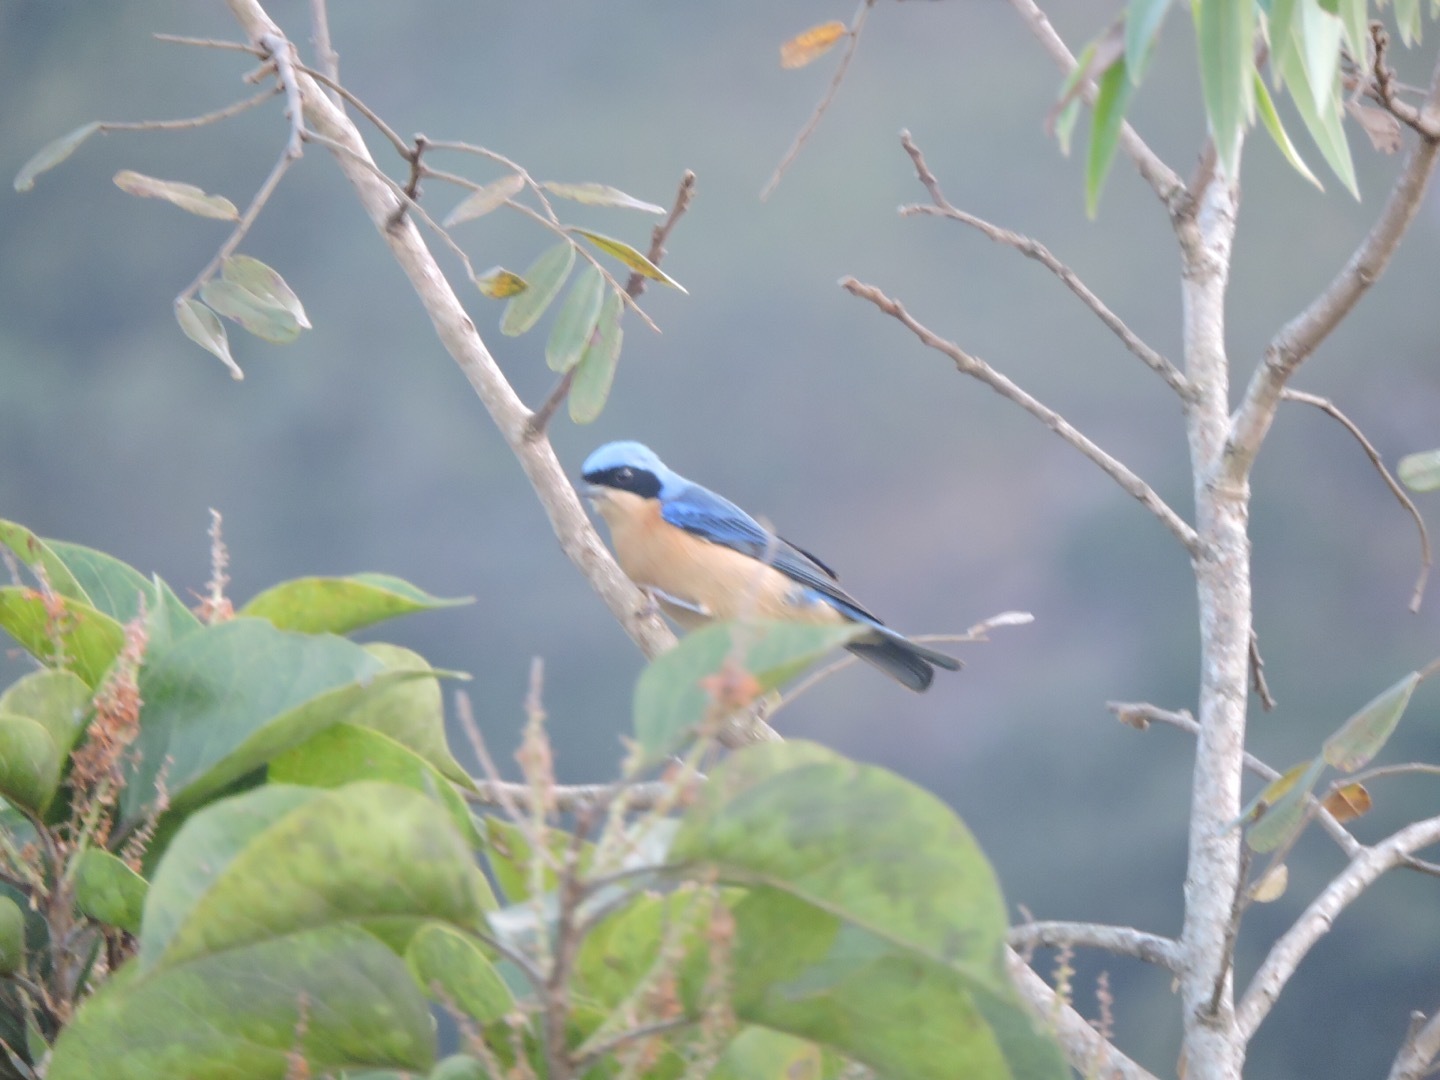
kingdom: Animalia
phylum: Chordata
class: Aves
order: Passeriformes
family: Thraupidae
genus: Pipraeidea
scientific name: Pipraeidea melanonota
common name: Fawn-breasted tanager
